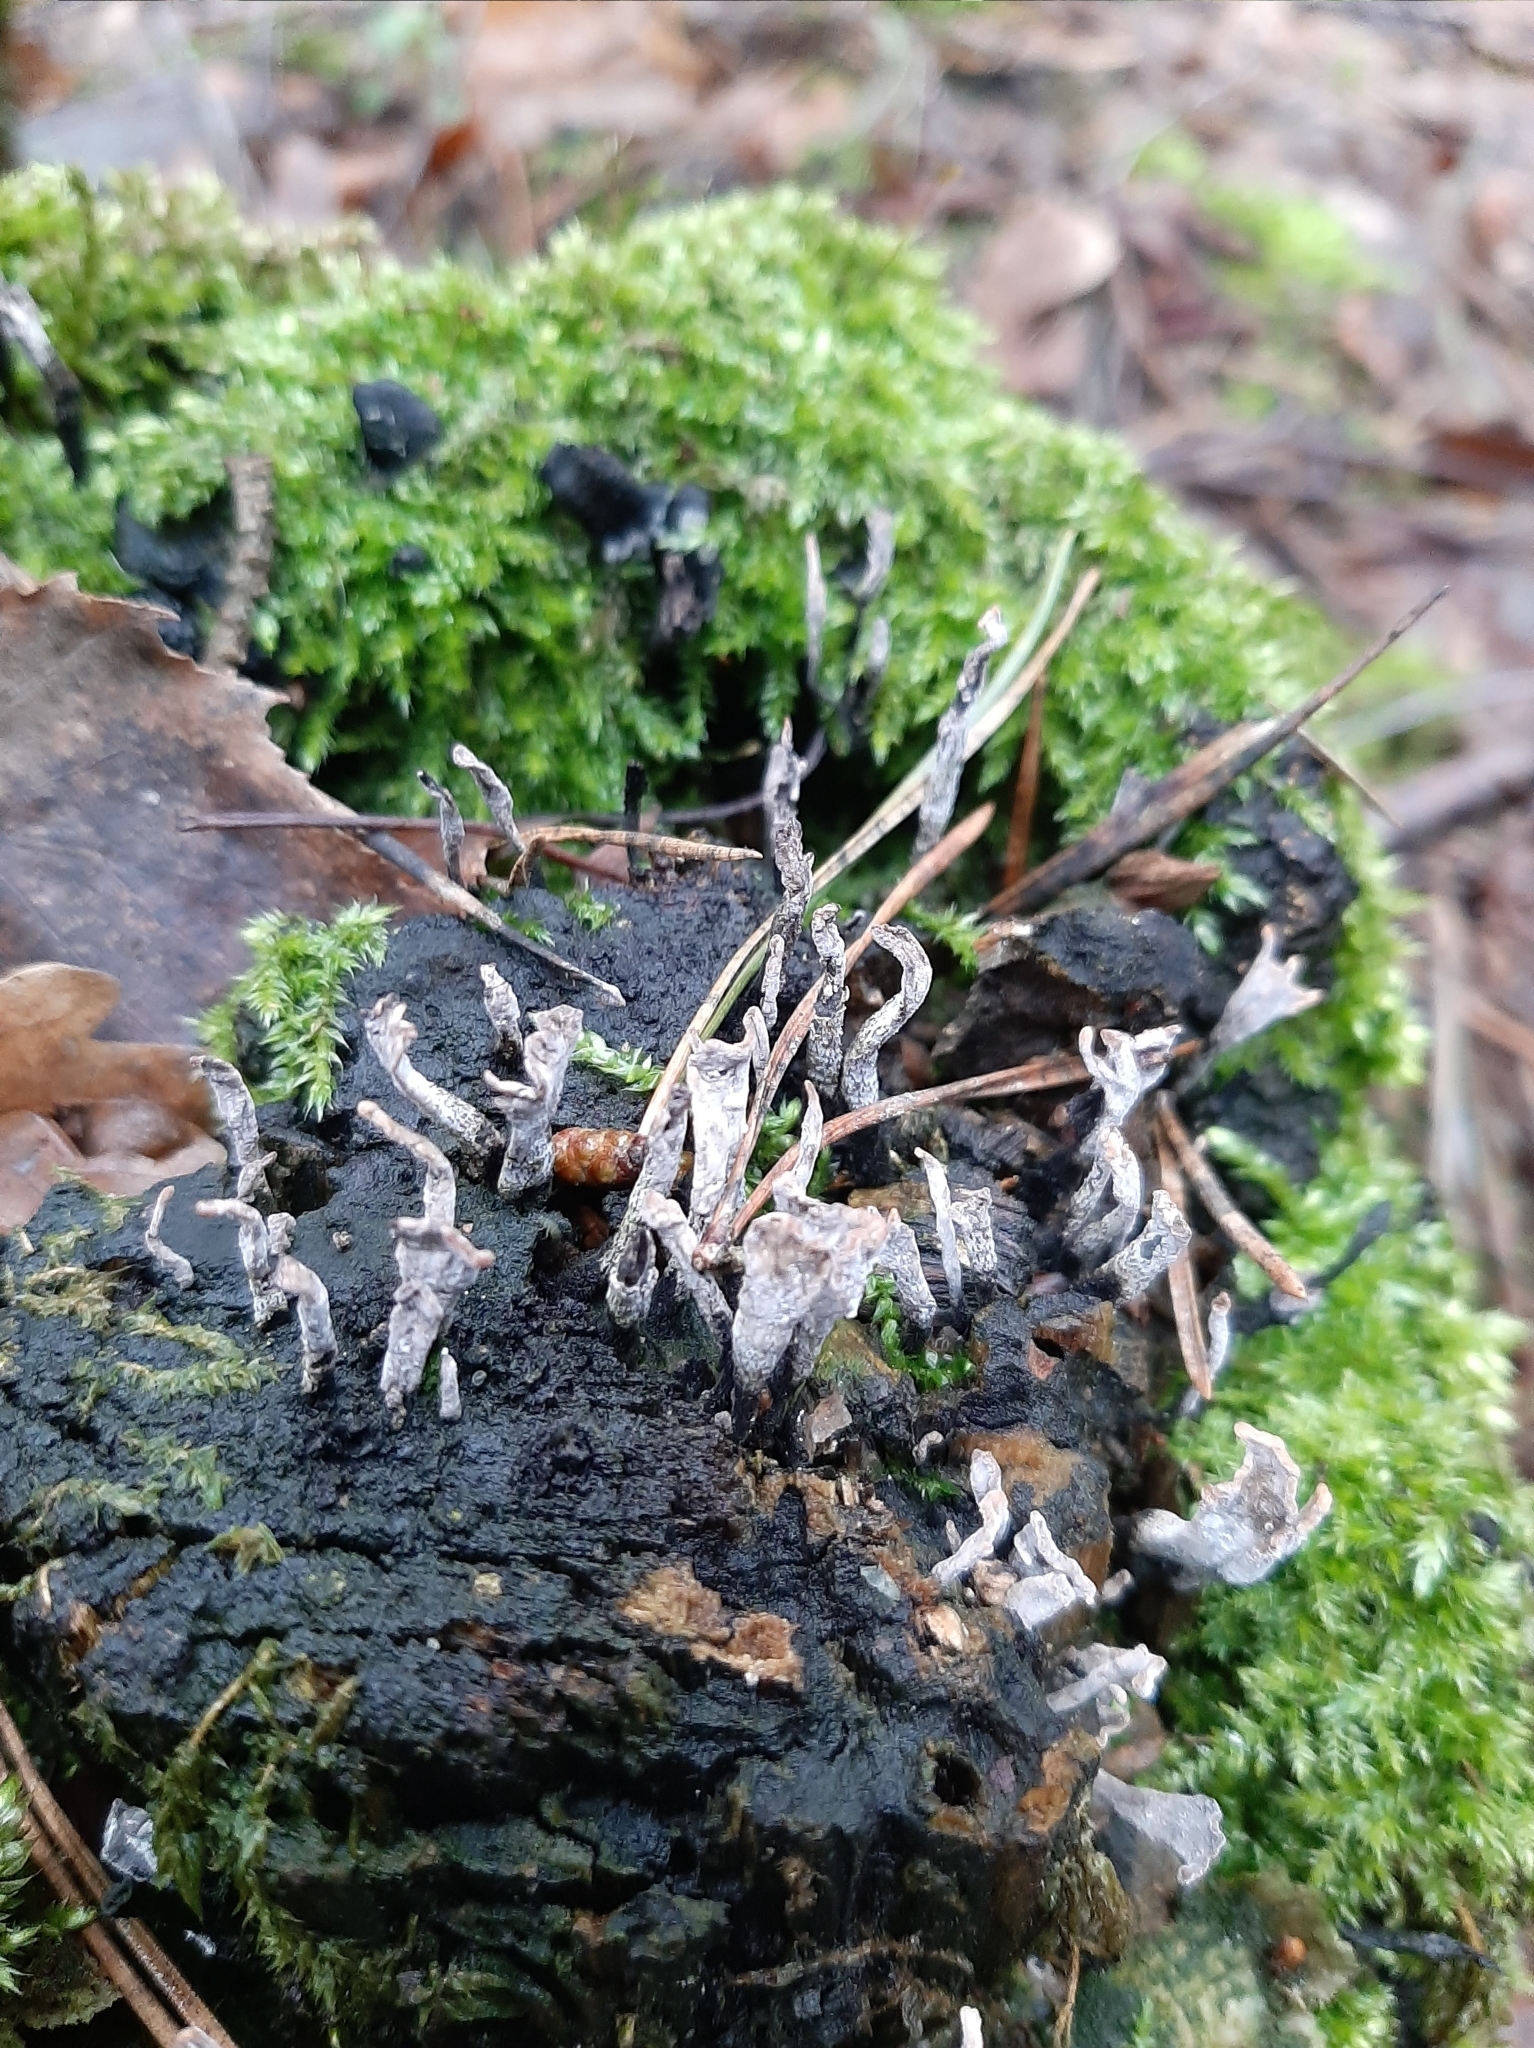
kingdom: Fungi
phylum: Ascomycota
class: Sordariomycetes
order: Xylariales
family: Xylariaceae
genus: Xylaria
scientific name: Xylaria hypoxylon
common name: Candle-snuff fungus
